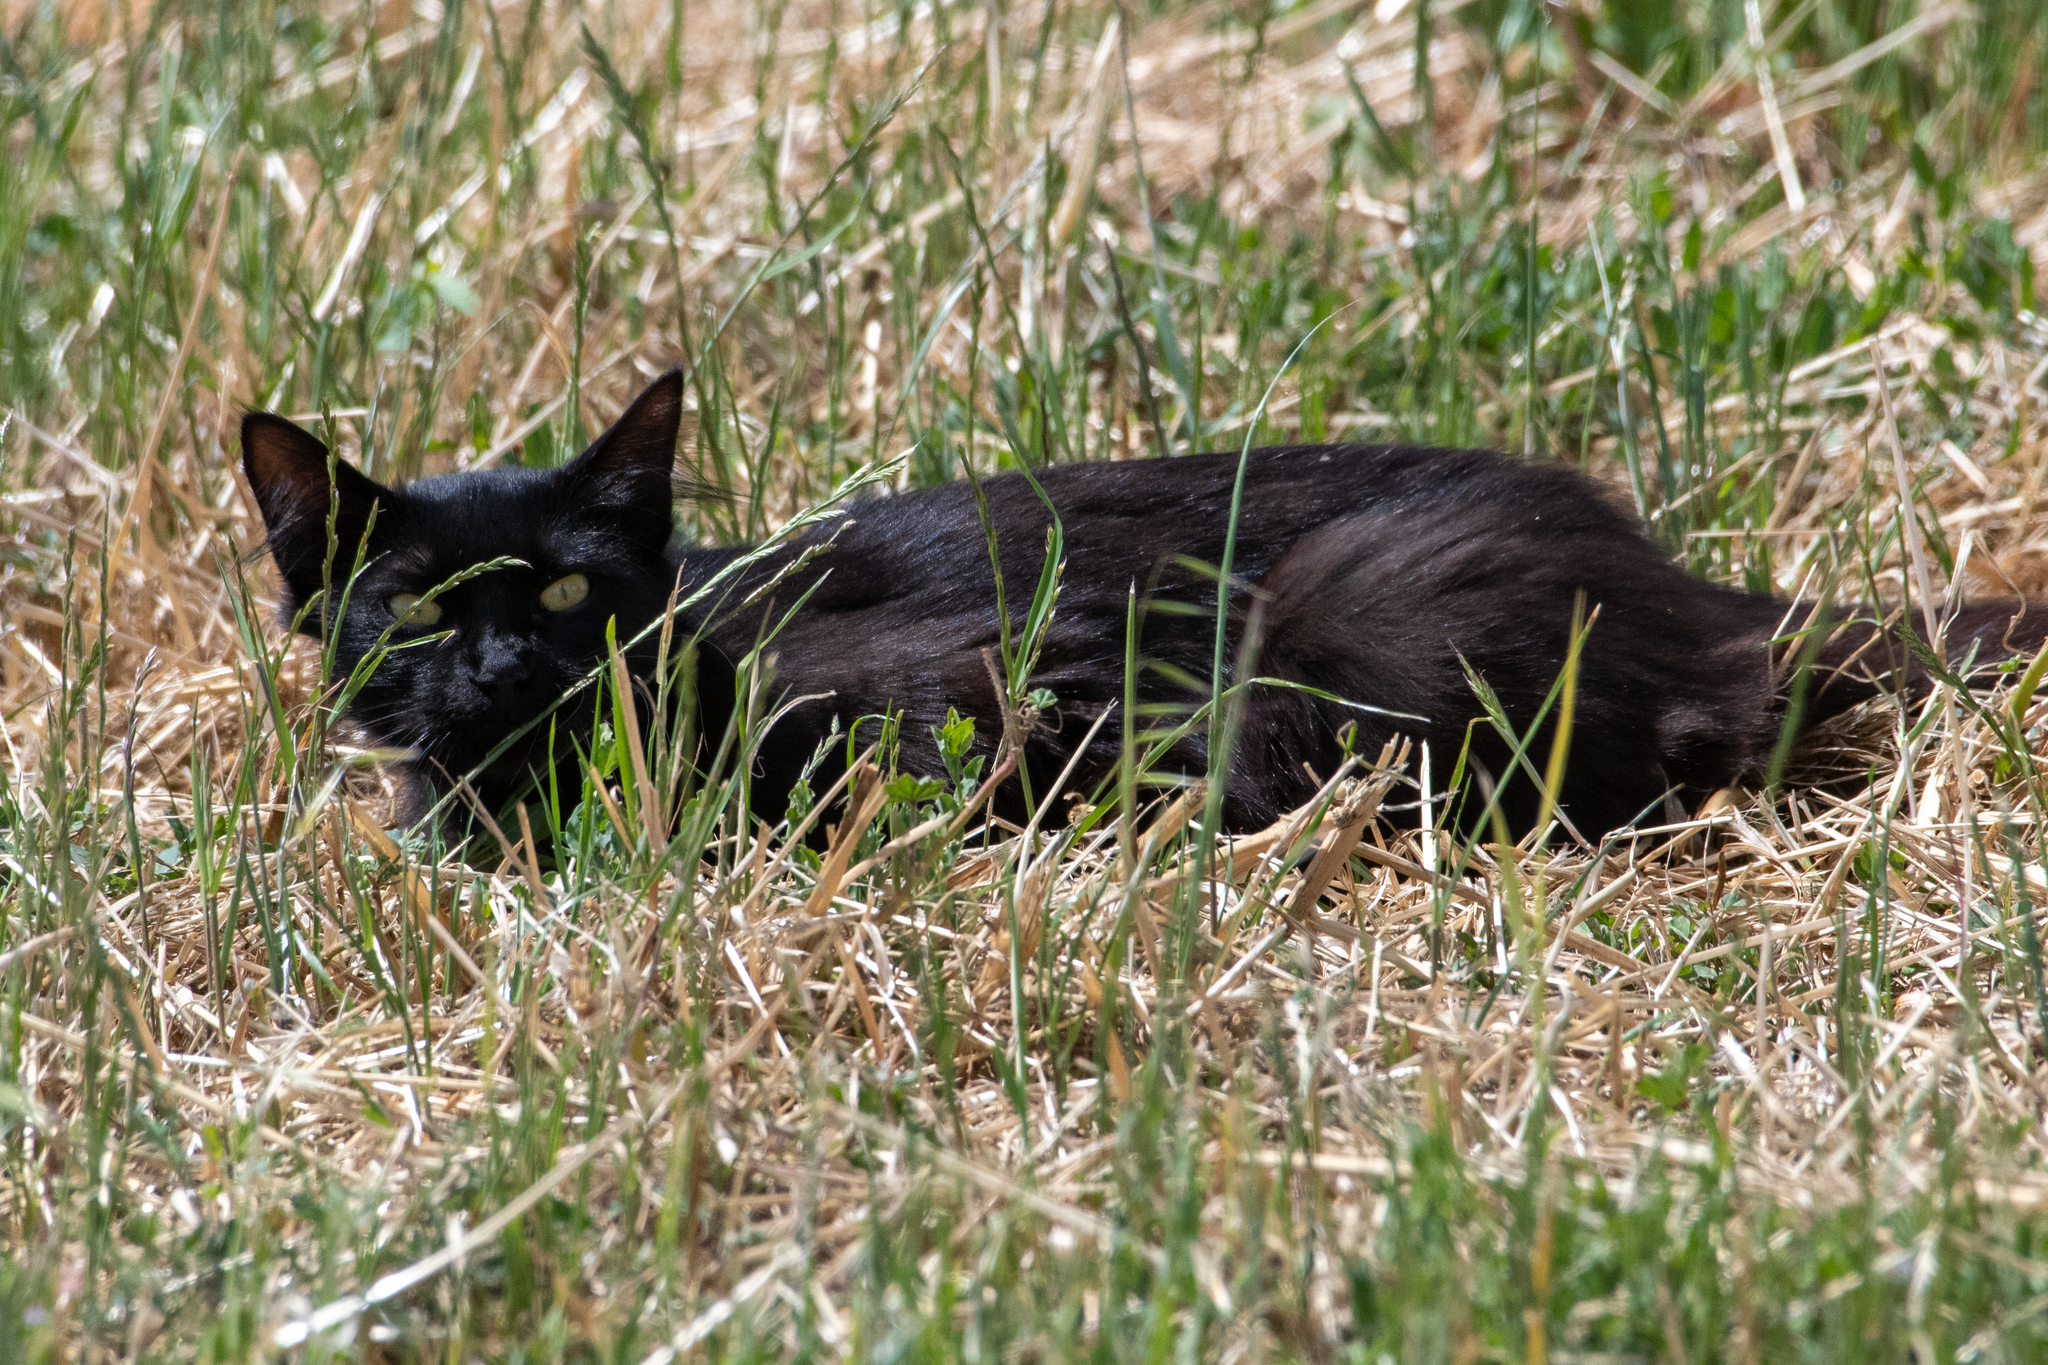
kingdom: Animalia
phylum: Chordata
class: Mammalia
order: Carnivora
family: Felidae
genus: Felis
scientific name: Felis catus
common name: Domestic cat
